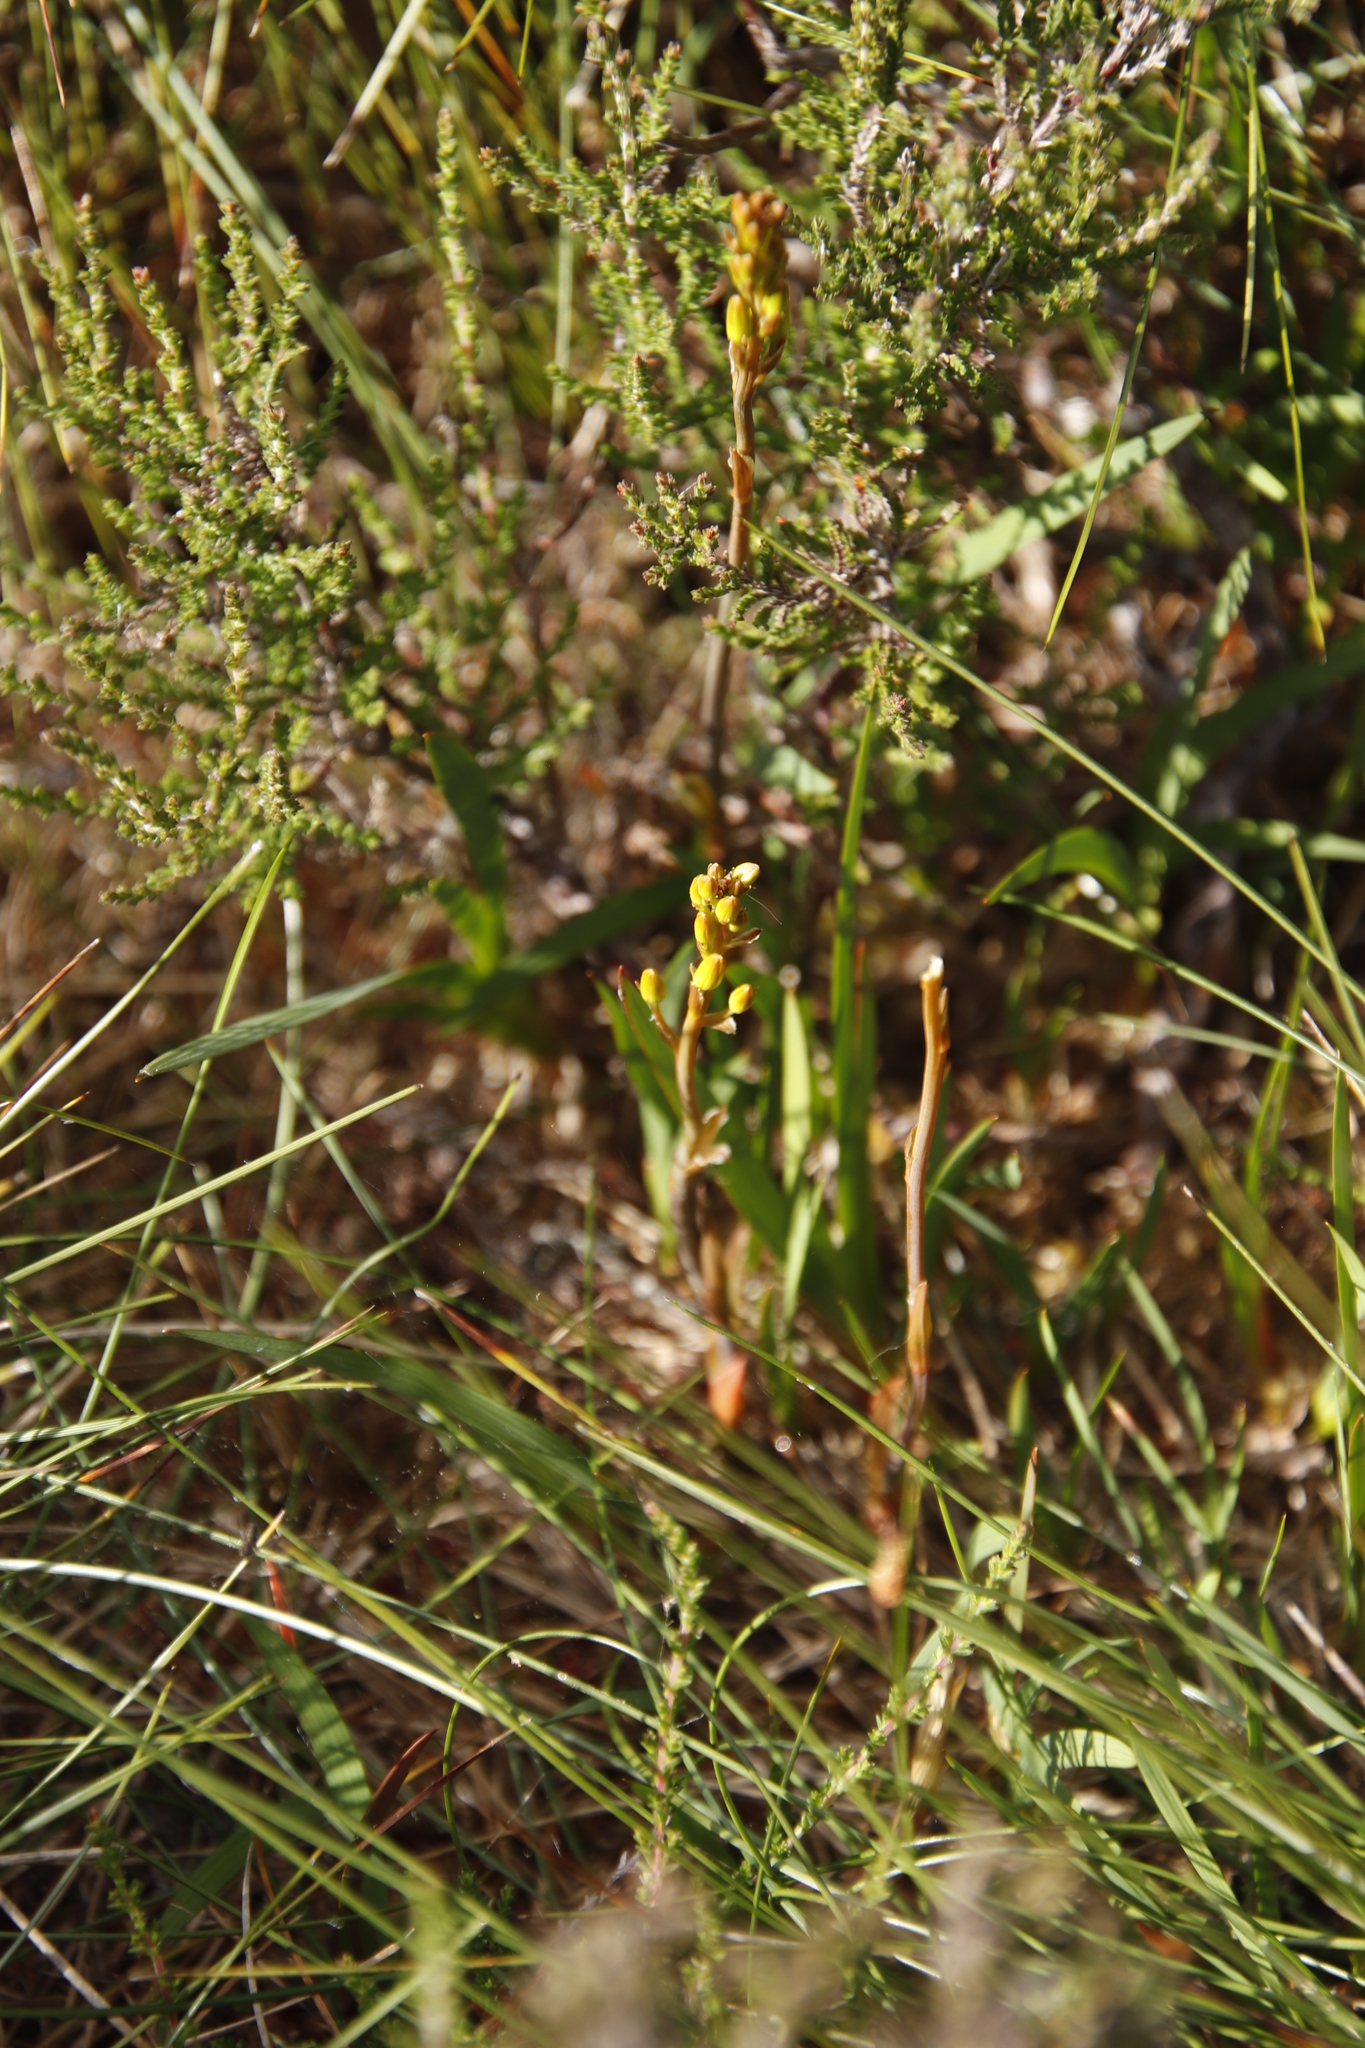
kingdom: Plantae
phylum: Tracheophyta
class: Liliopsida
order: Dioscoreales
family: Nartheciaceae
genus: Narthecium
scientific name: Narthecium ossifragum
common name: Bog asphodel
